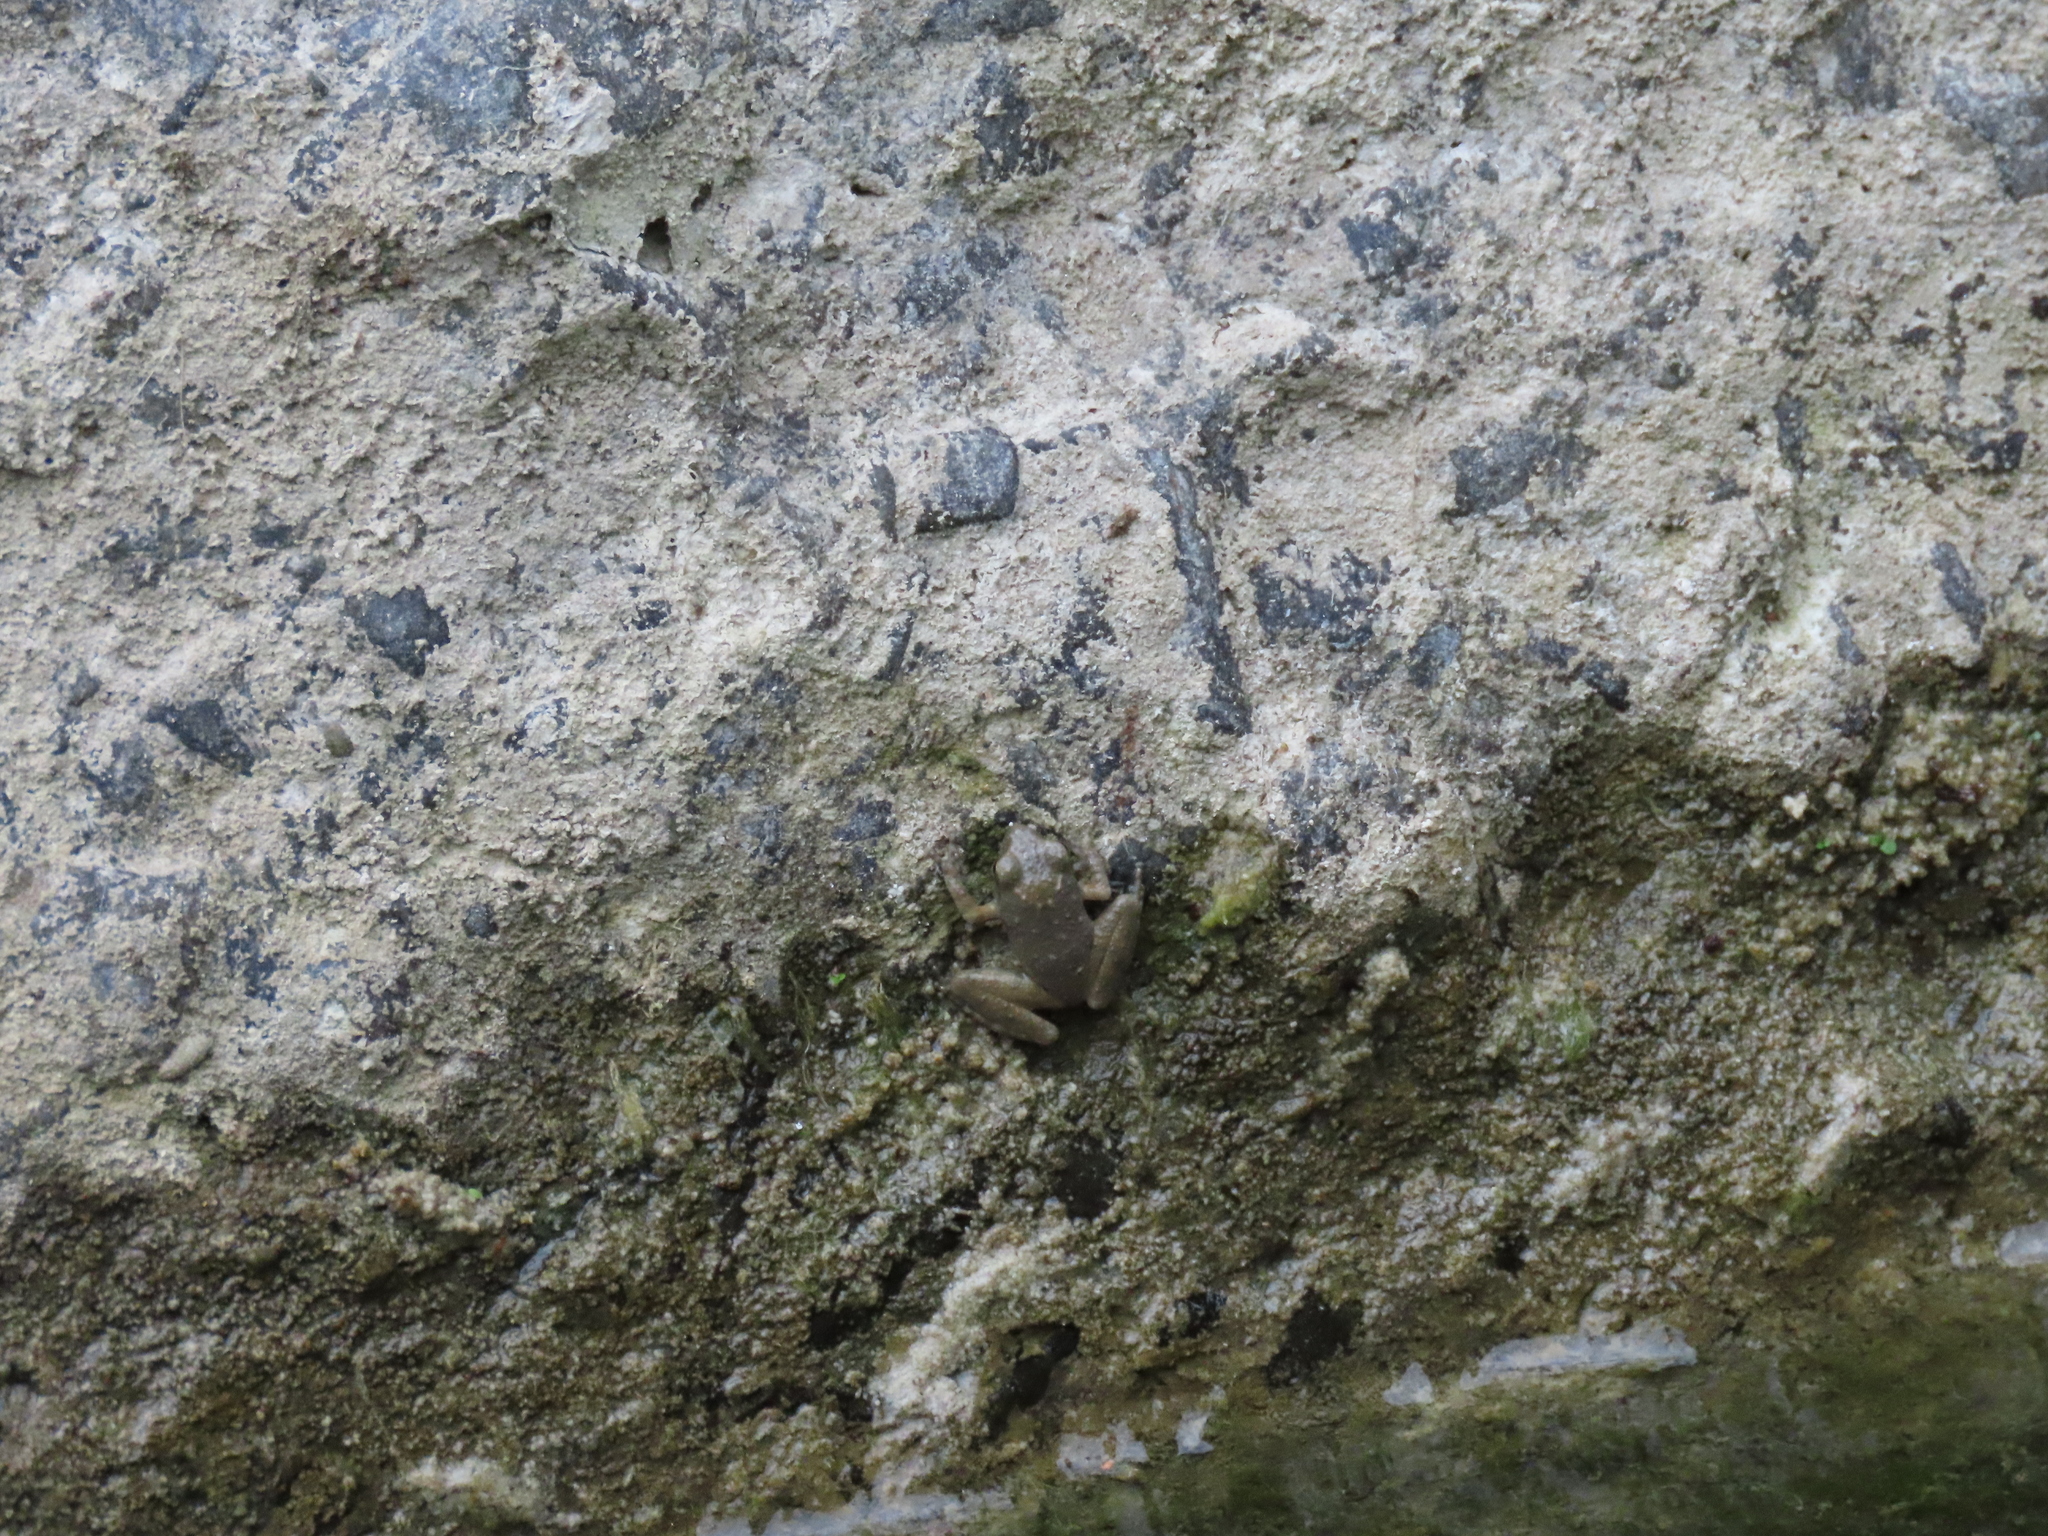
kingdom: Animalia
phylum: Chordata
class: Amphibia
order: Anura
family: Rhacophoridae
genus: Buergeria
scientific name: Buergeria otai
